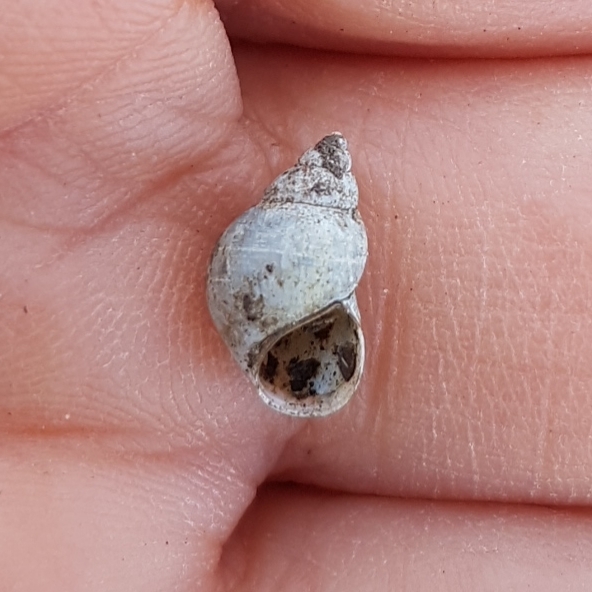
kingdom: Animalia
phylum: Mollusca
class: Gastropoda
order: Littorinimorpha
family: Bithyniidae
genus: Bithynia
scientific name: Bithynia tentaculata
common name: Common bithynia
